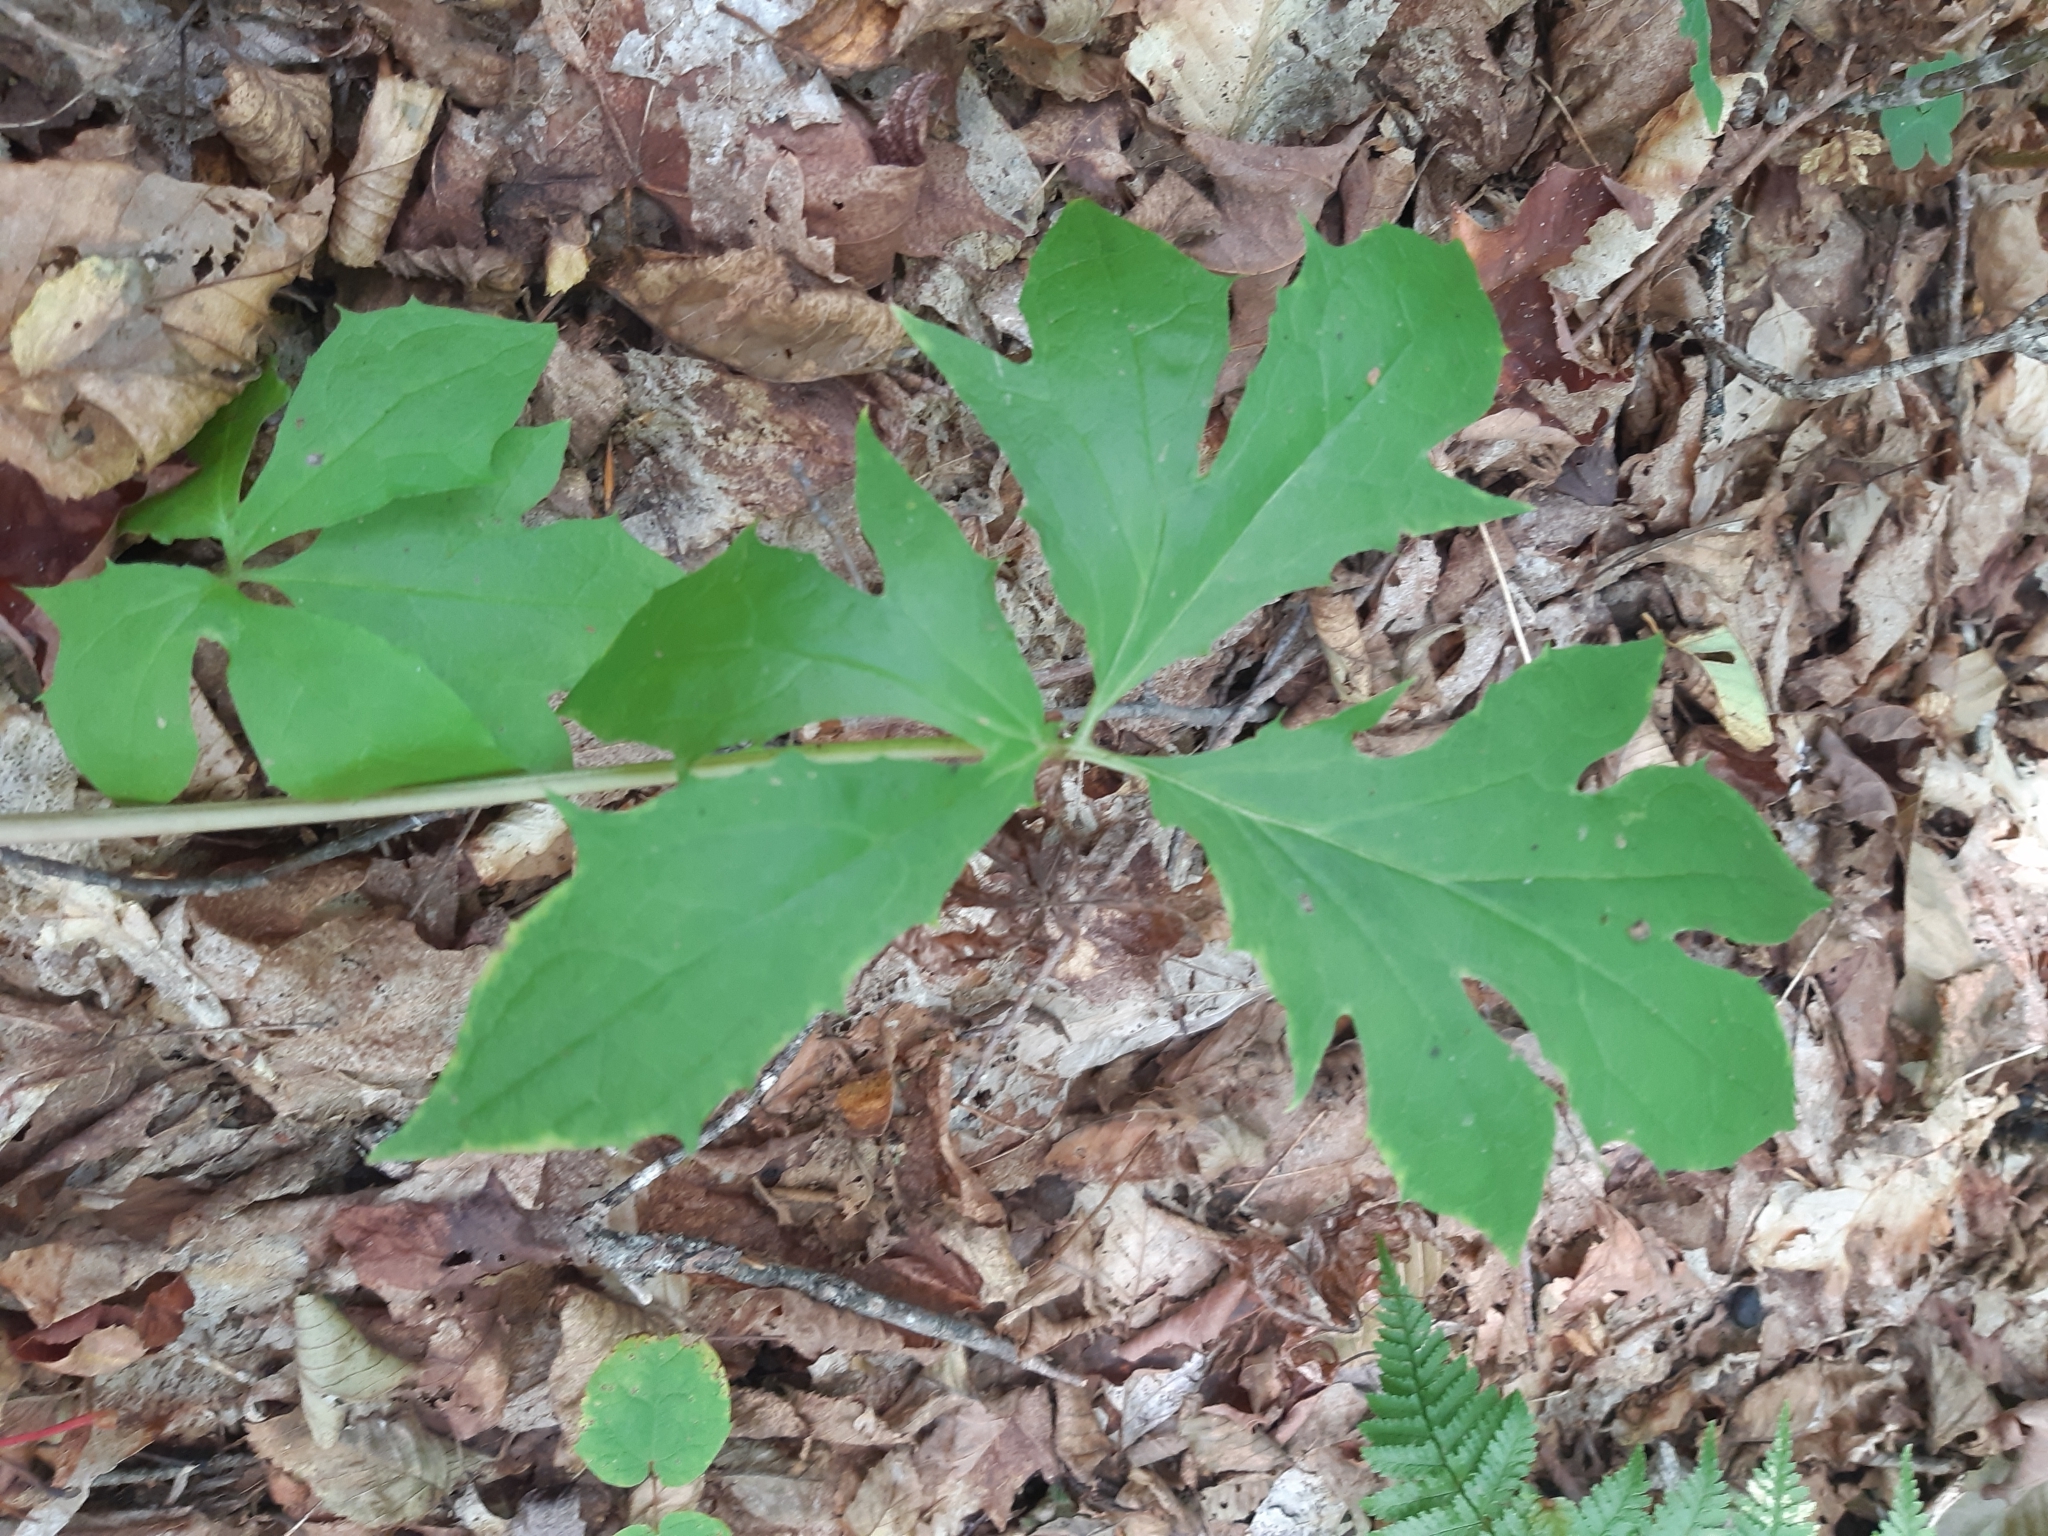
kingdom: Plantae
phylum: Tracheophyta
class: Magnoliopsida
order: Asterales
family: Asteraceae
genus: Nabalus
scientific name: Nabalus trifoliolatus
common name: Gall-of-the-earth
